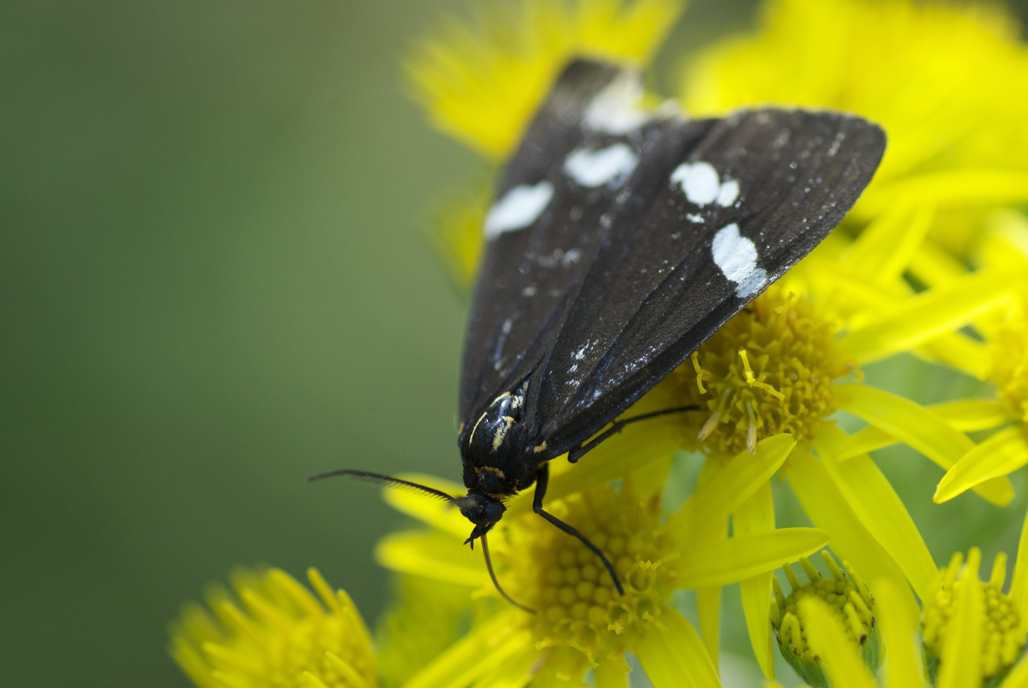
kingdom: Animalia
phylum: Arthropoda
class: Insecta
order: Lepidoptera
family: Erebidae
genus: Nyctemera
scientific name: Nyctemera annulatum
